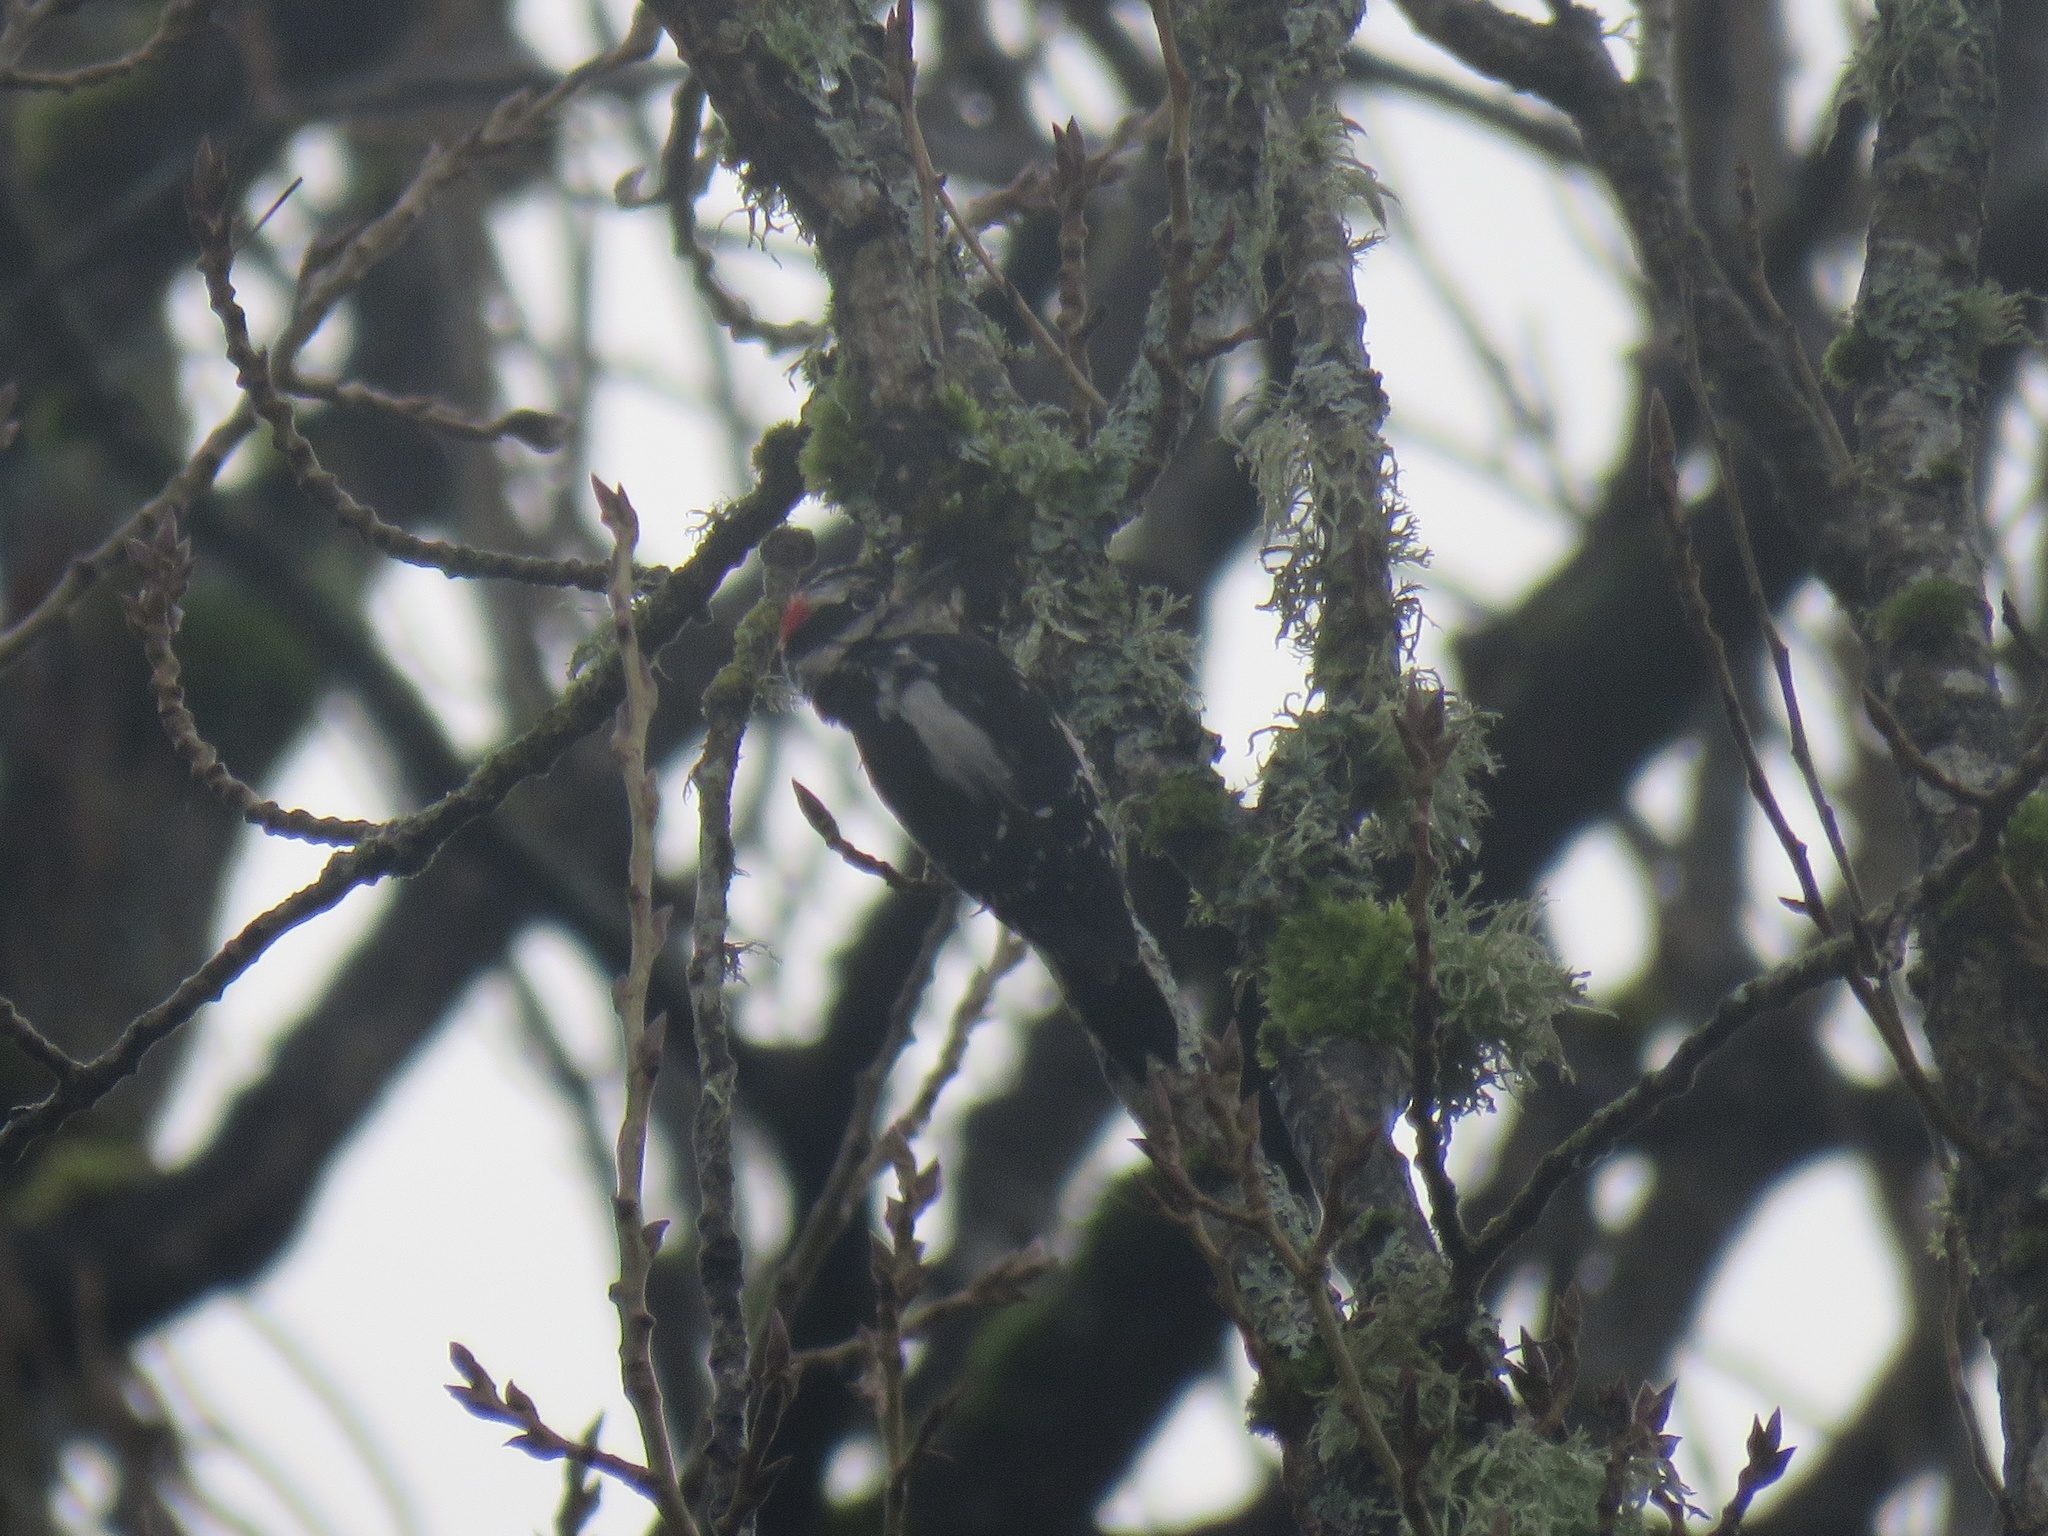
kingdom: Animalia
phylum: Chordata
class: Aves
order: Piciformes
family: Picidae
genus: Dryobates
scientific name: Dryobates pubescens
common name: Downy woodpecker
